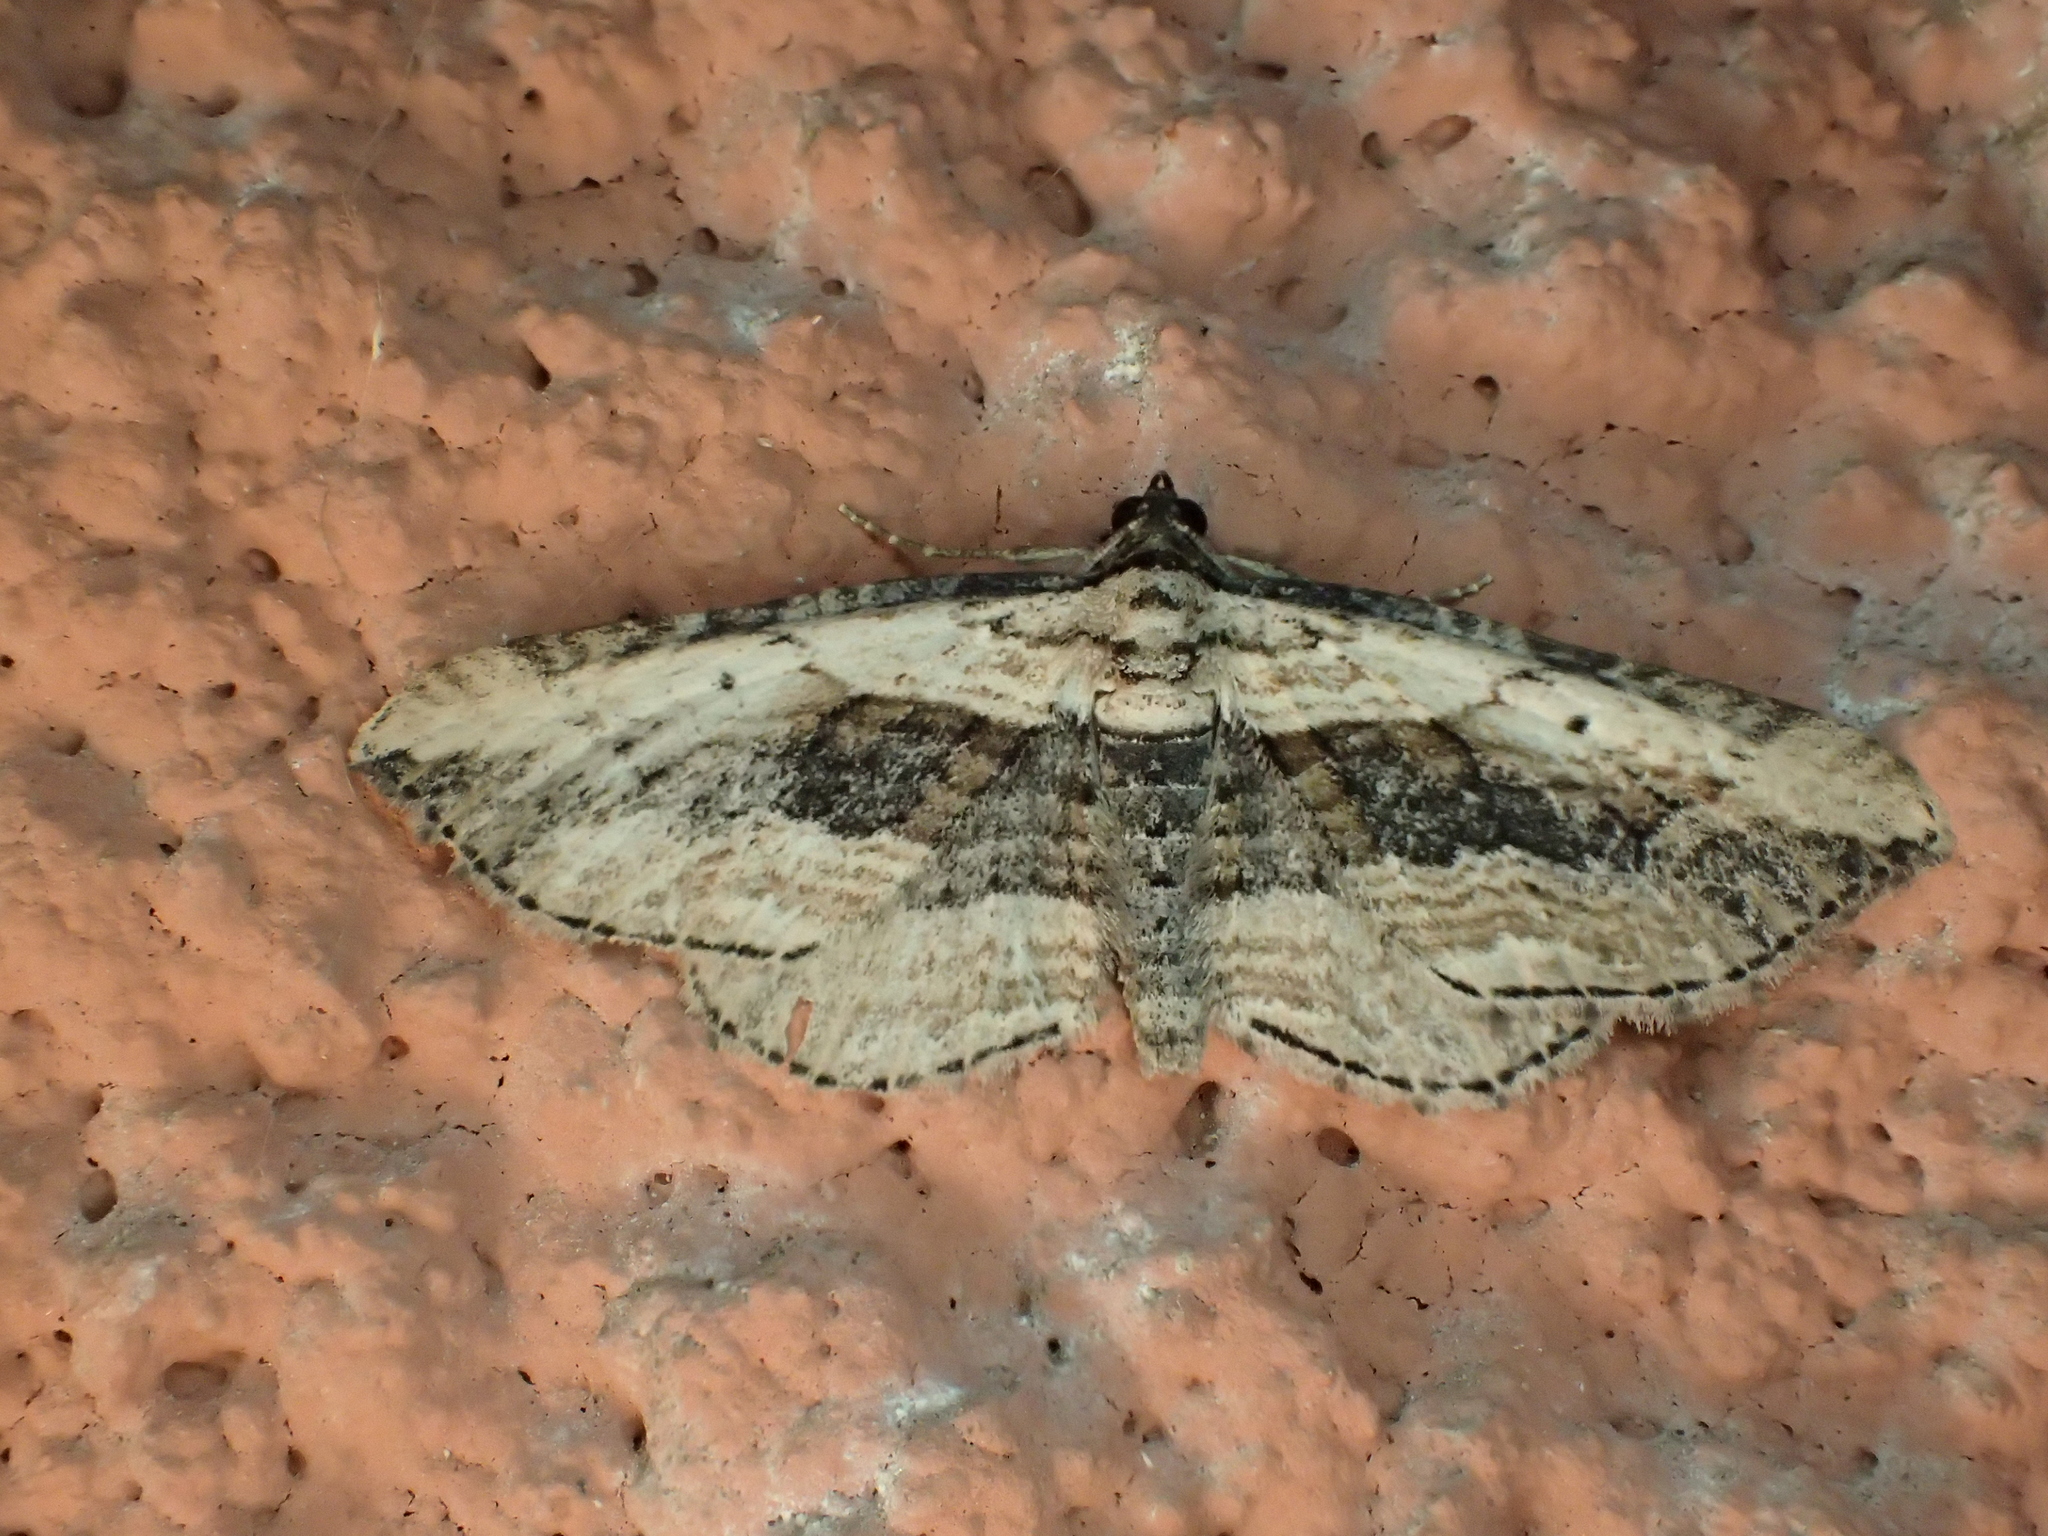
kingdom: Animalia
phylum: Arthropoda
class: Insecta
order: Lepidoptera
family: Geometridae
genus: Horisme
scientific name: Horisme vitalbata
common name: Small waved umber
